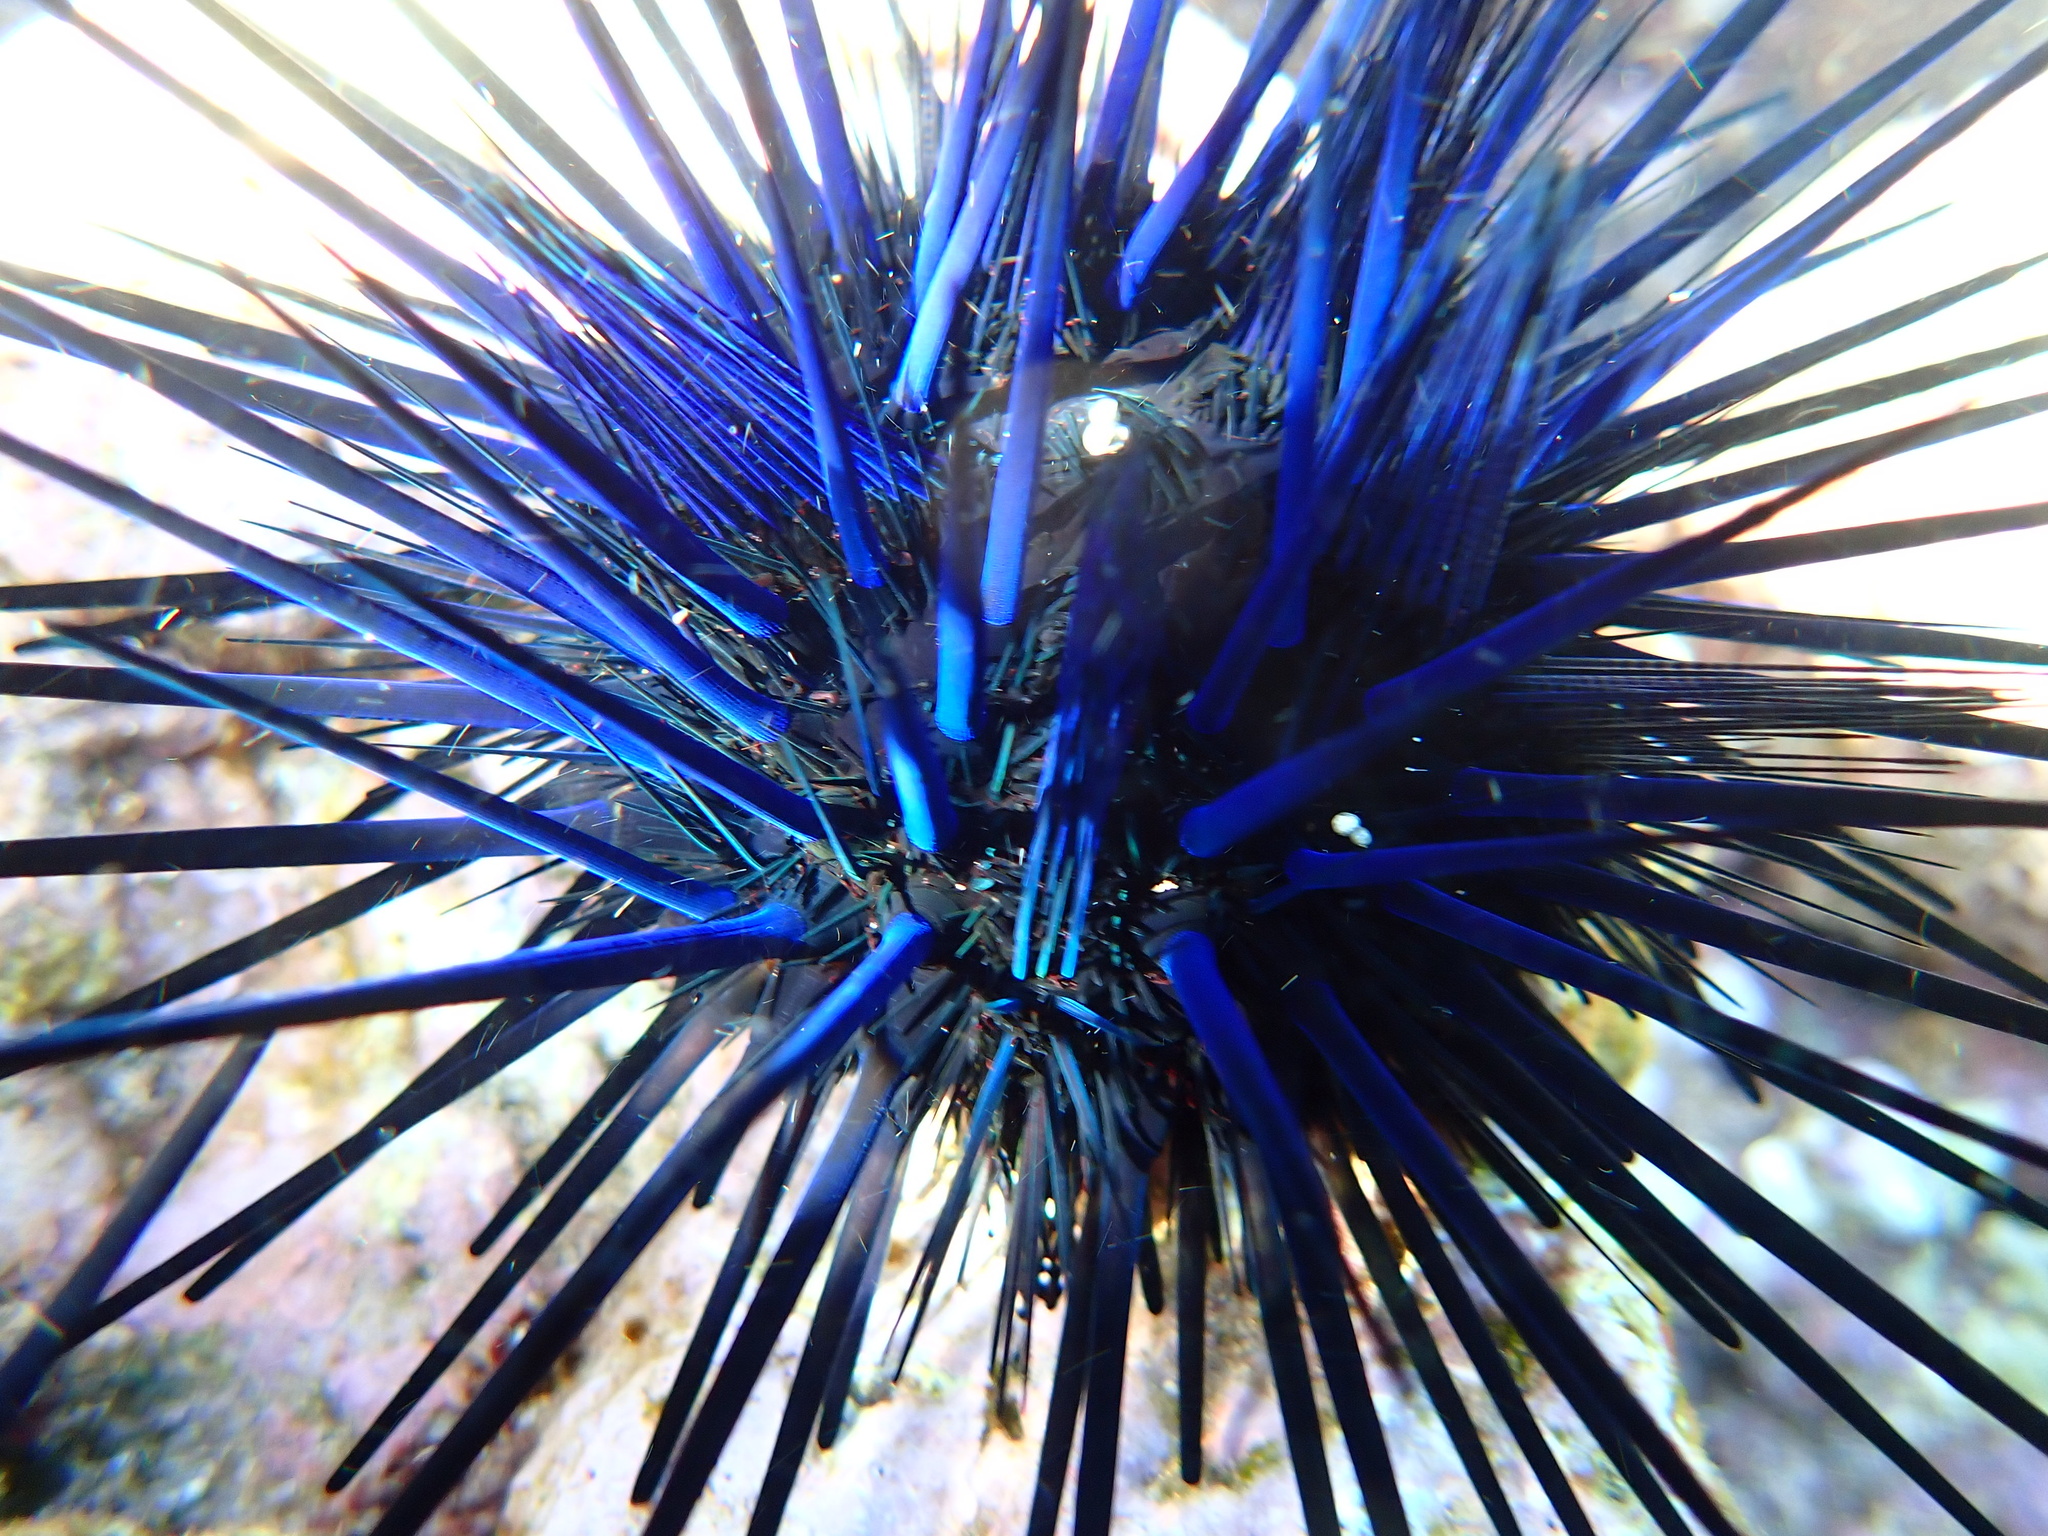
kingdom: Animalia
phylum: Echinodermata
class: Echinoidea
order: Diadematoida
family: Diadematidae
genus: Echinothrix
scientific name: Echinothrix diadema
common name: Schwarzer diademseeigel
